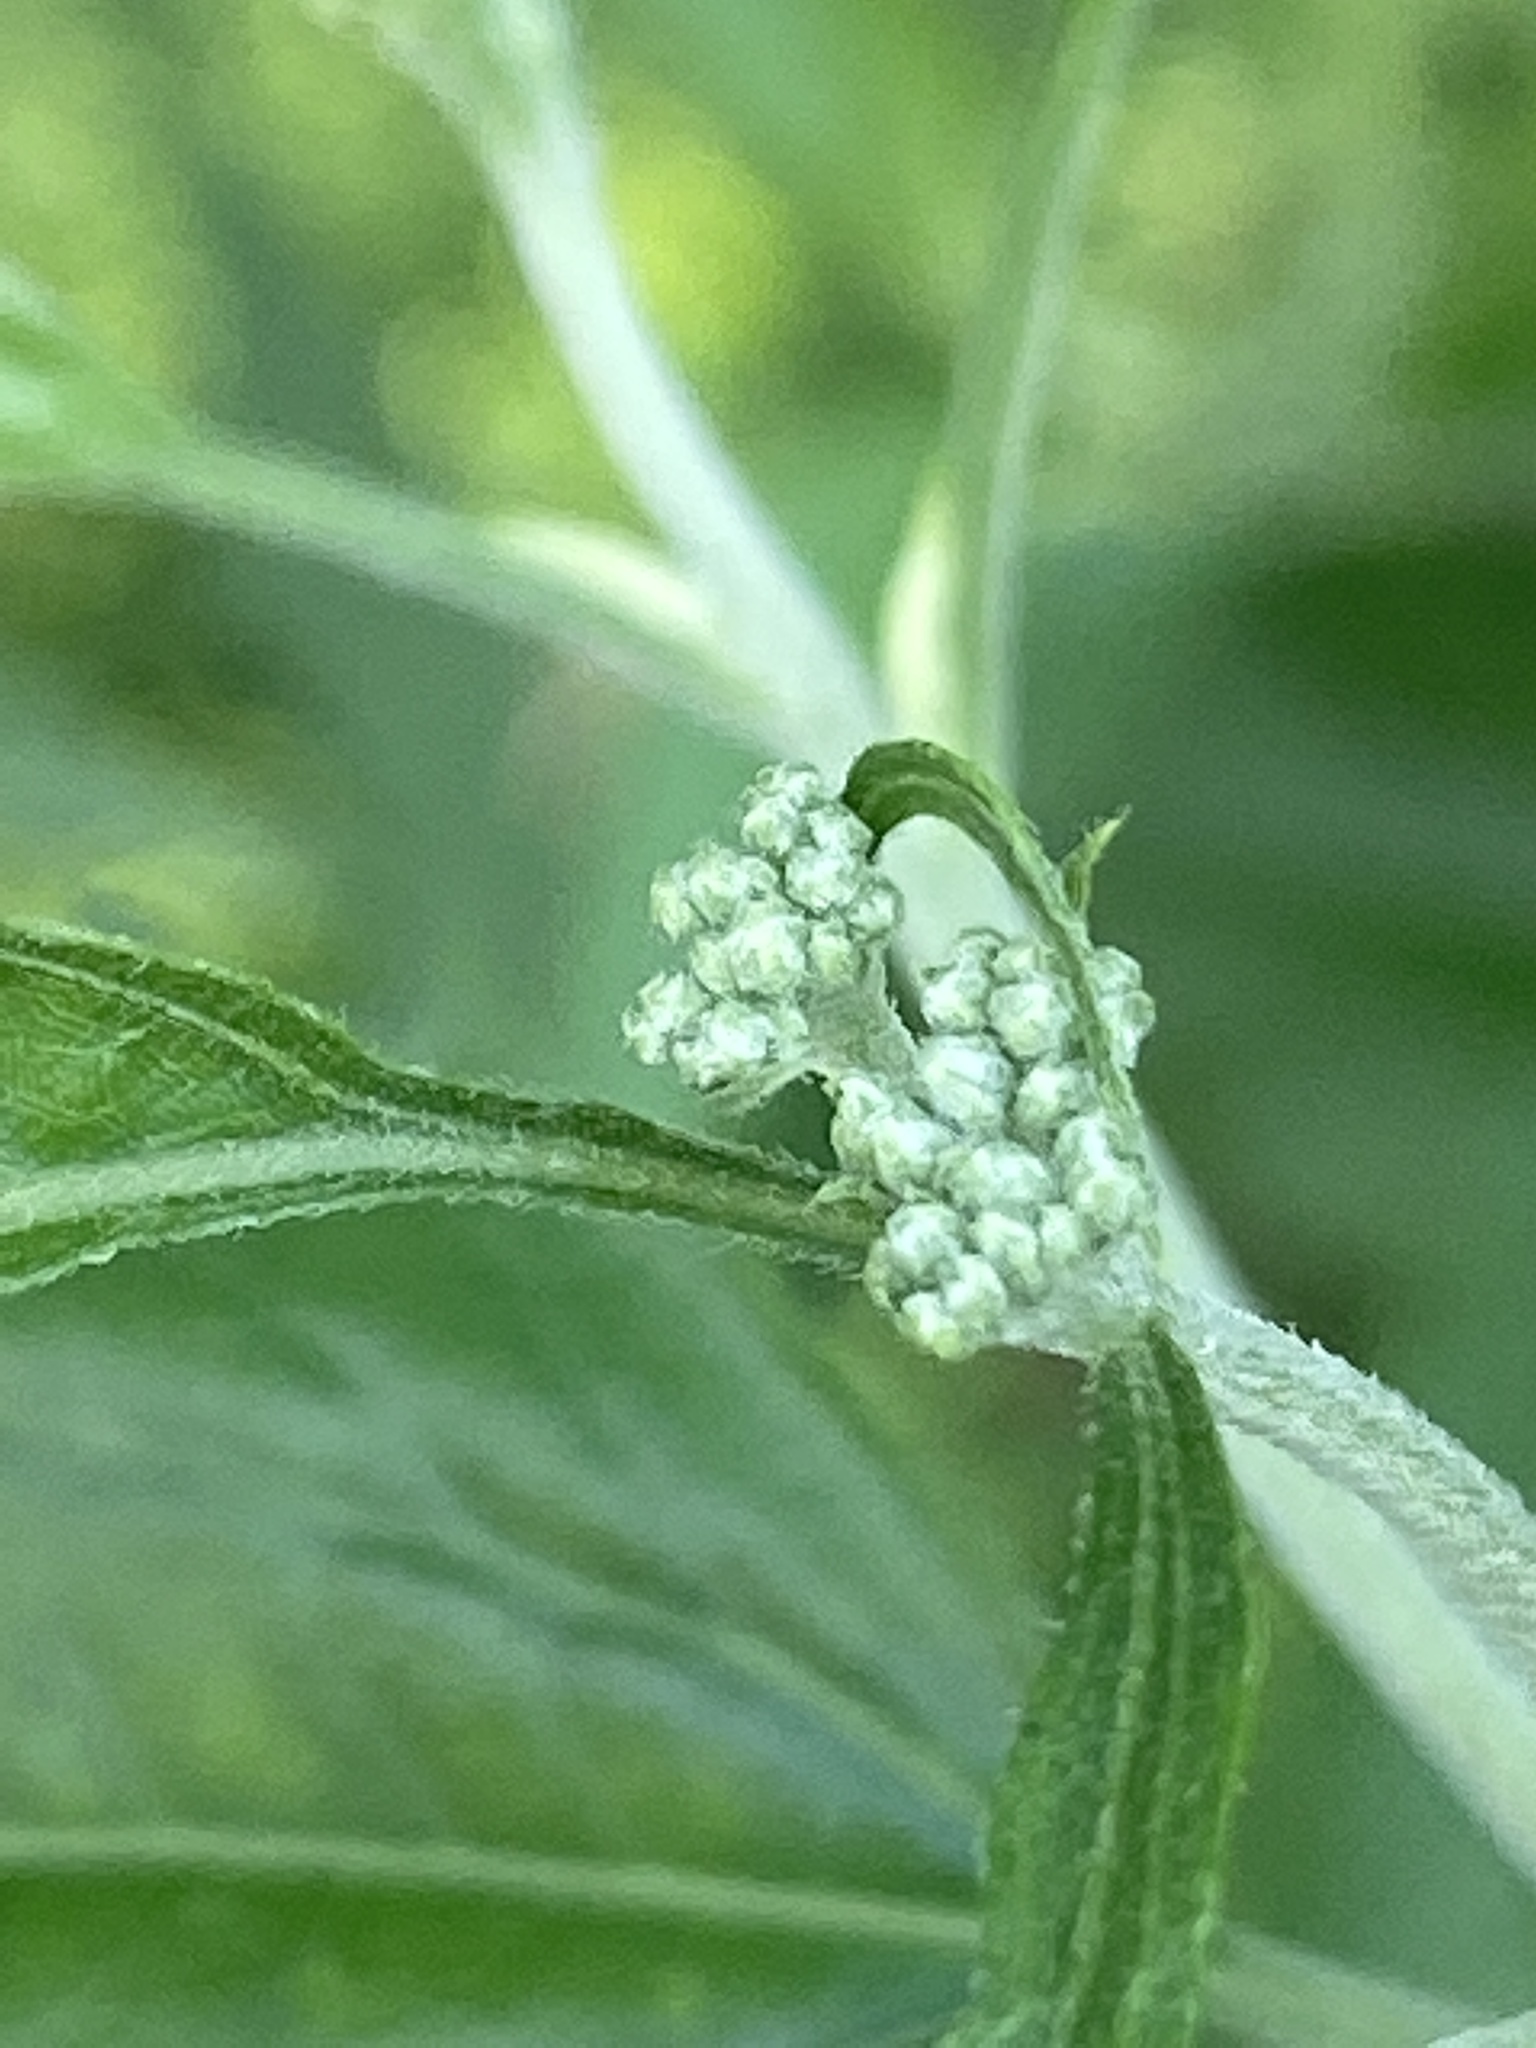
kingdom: Plantae
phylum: Tracheophyta
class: Magnoliopsida
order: Asterales
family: Asteraceae
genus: Eupatorium
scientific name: Eupatorium serotinum
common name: Late boneset
